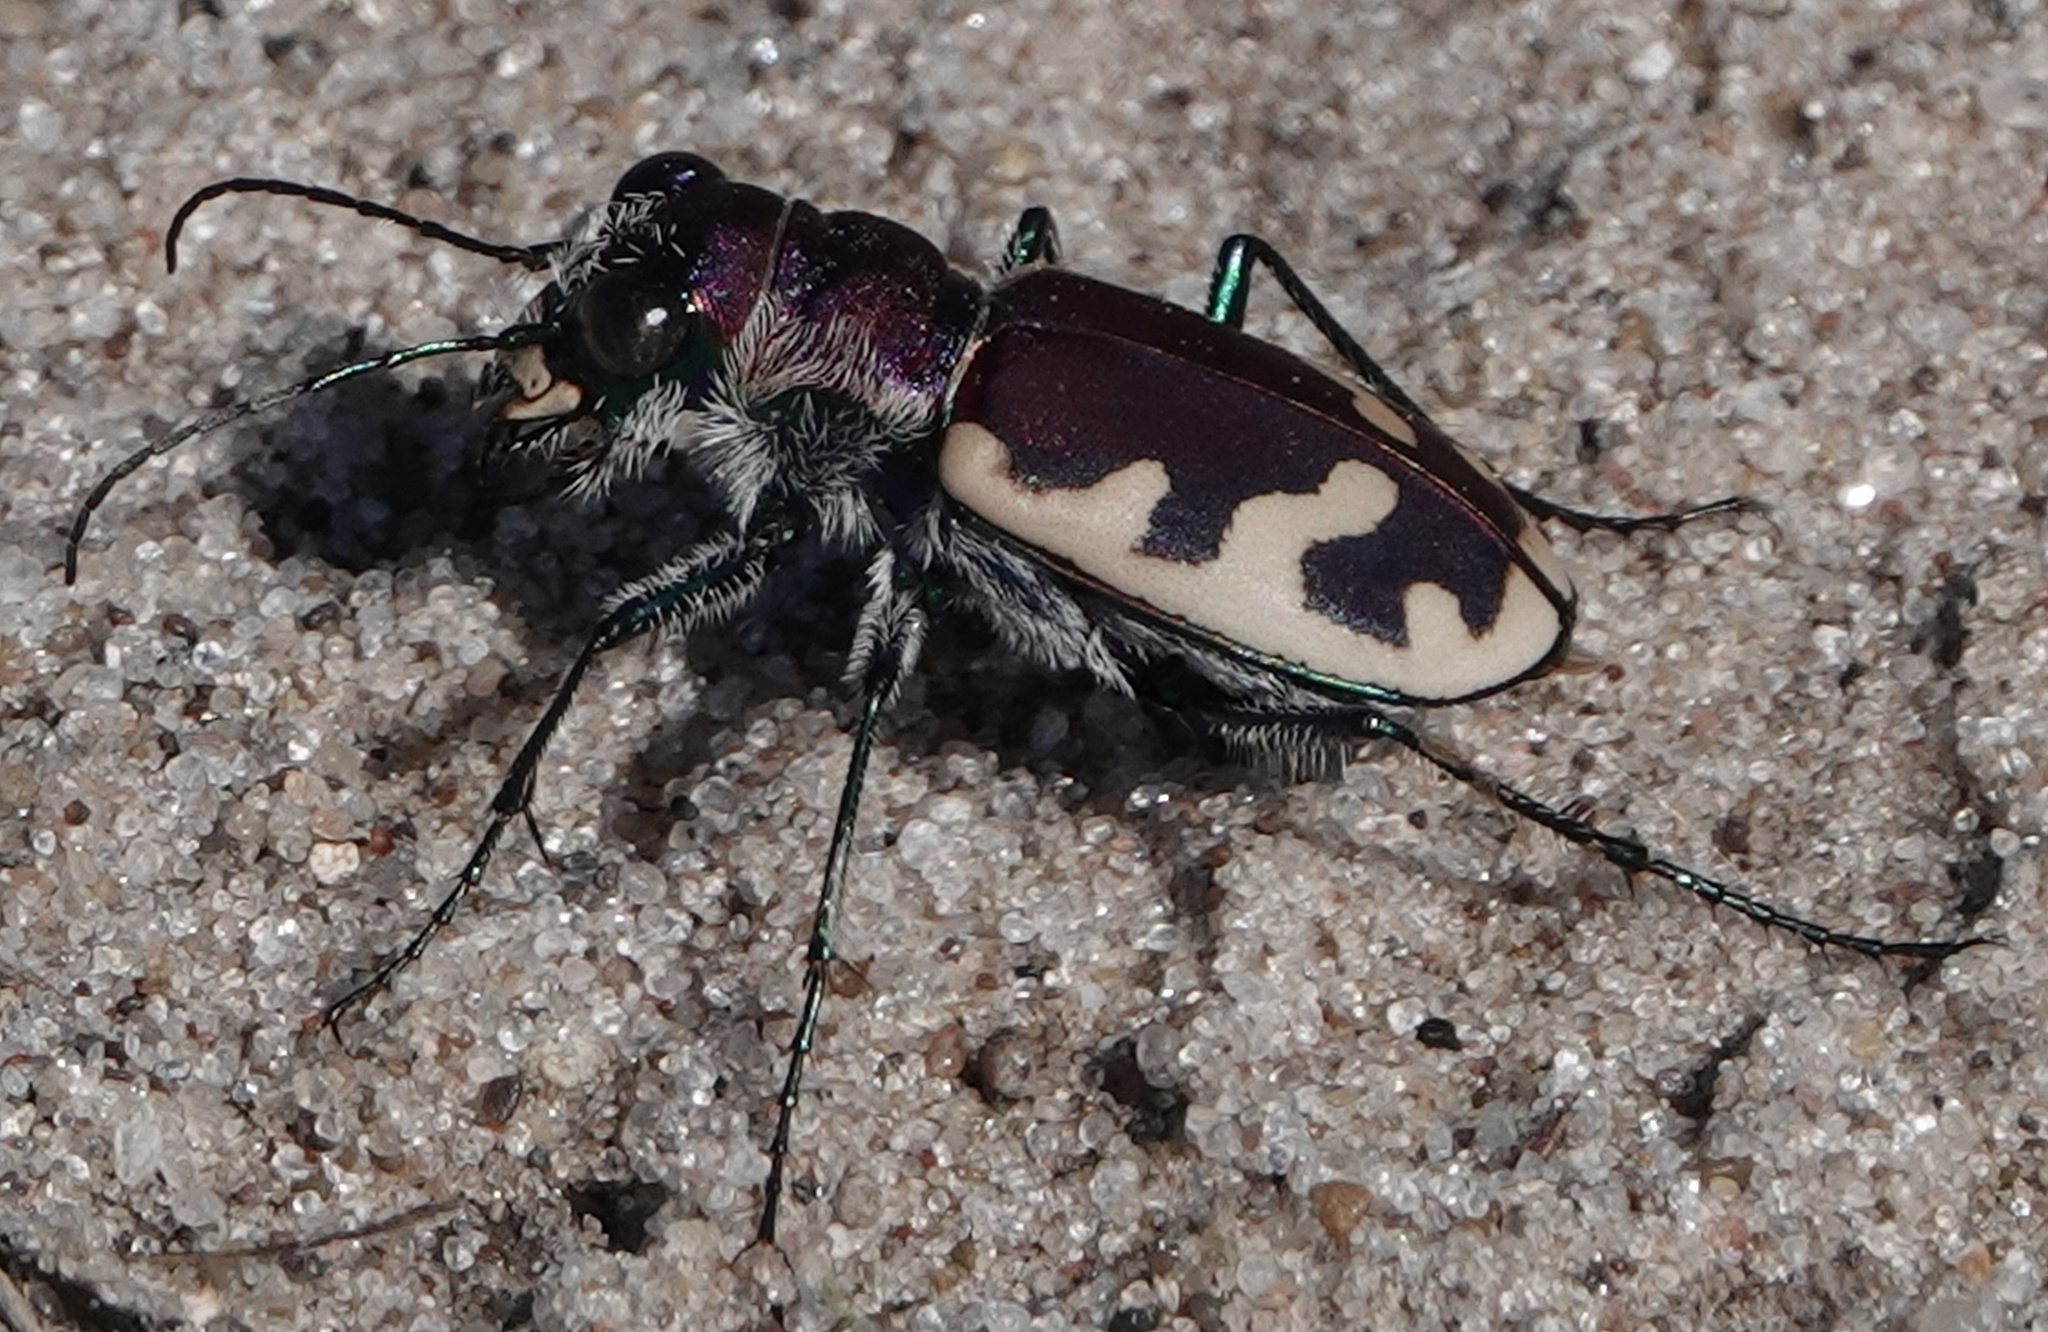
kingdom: Animalia
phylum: Arthropoda
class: Insecta
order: Coleoptera
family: Carabidae
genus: Cicindela
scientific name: Cicindela formosa
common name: Big sand tiger beetle
